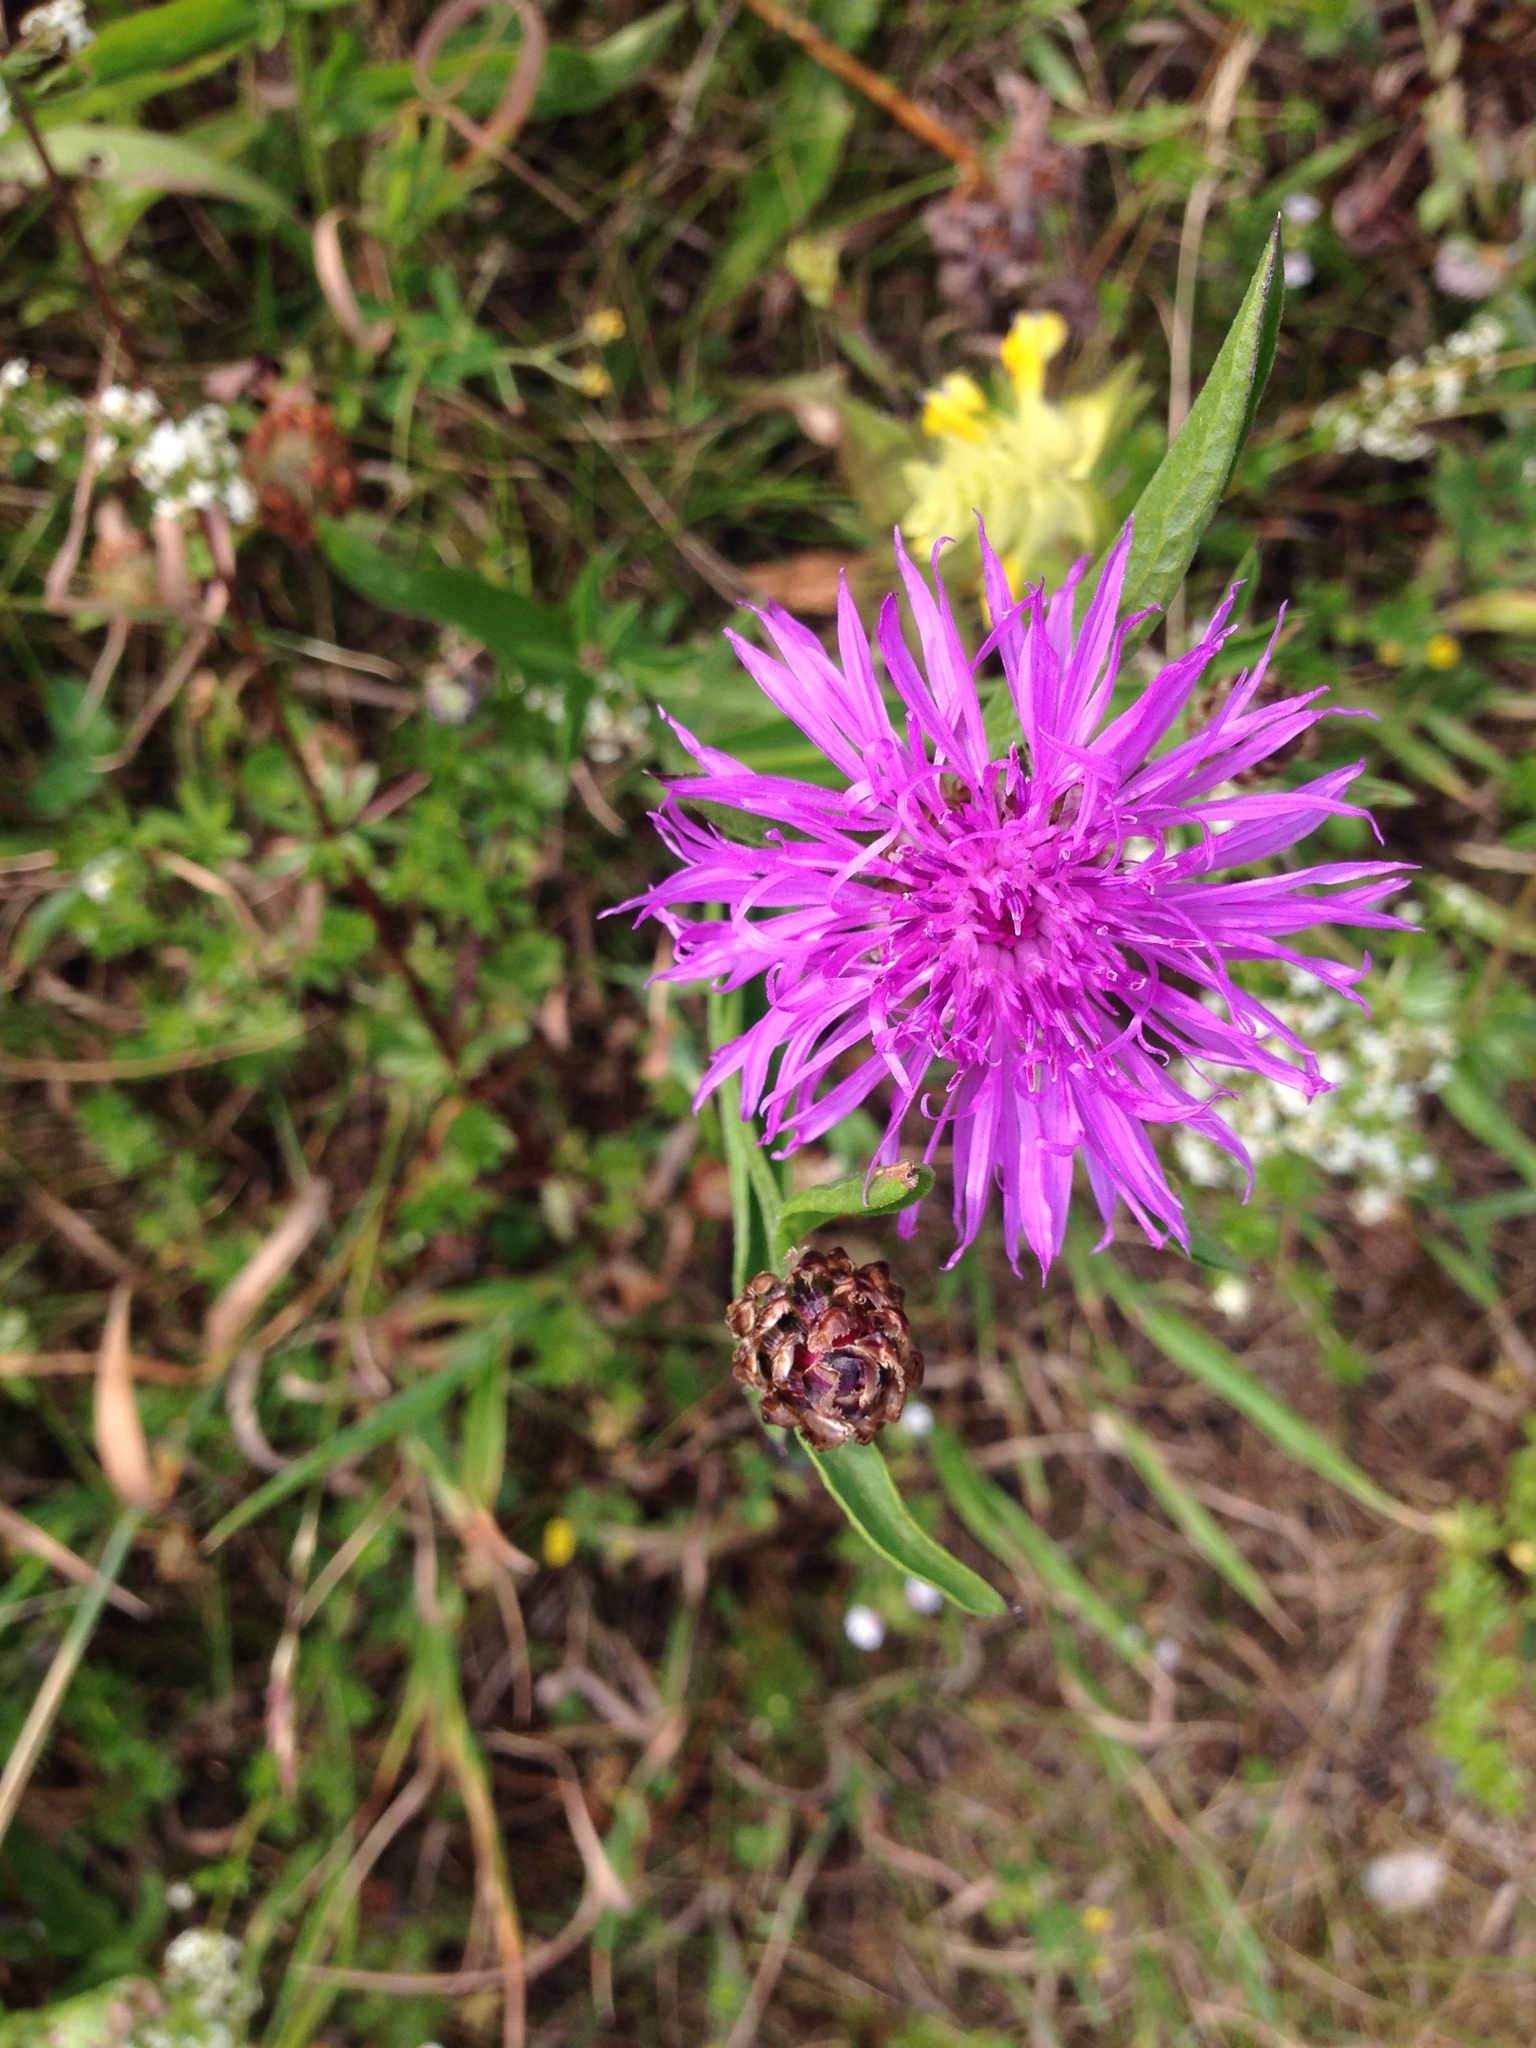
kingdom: Plantae
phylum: Tracheophyta
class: Magnoliopsida
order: Asterales
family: Asteraceae
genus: Centaurea
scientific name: Centaurea jacea
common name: Brown knapweed
